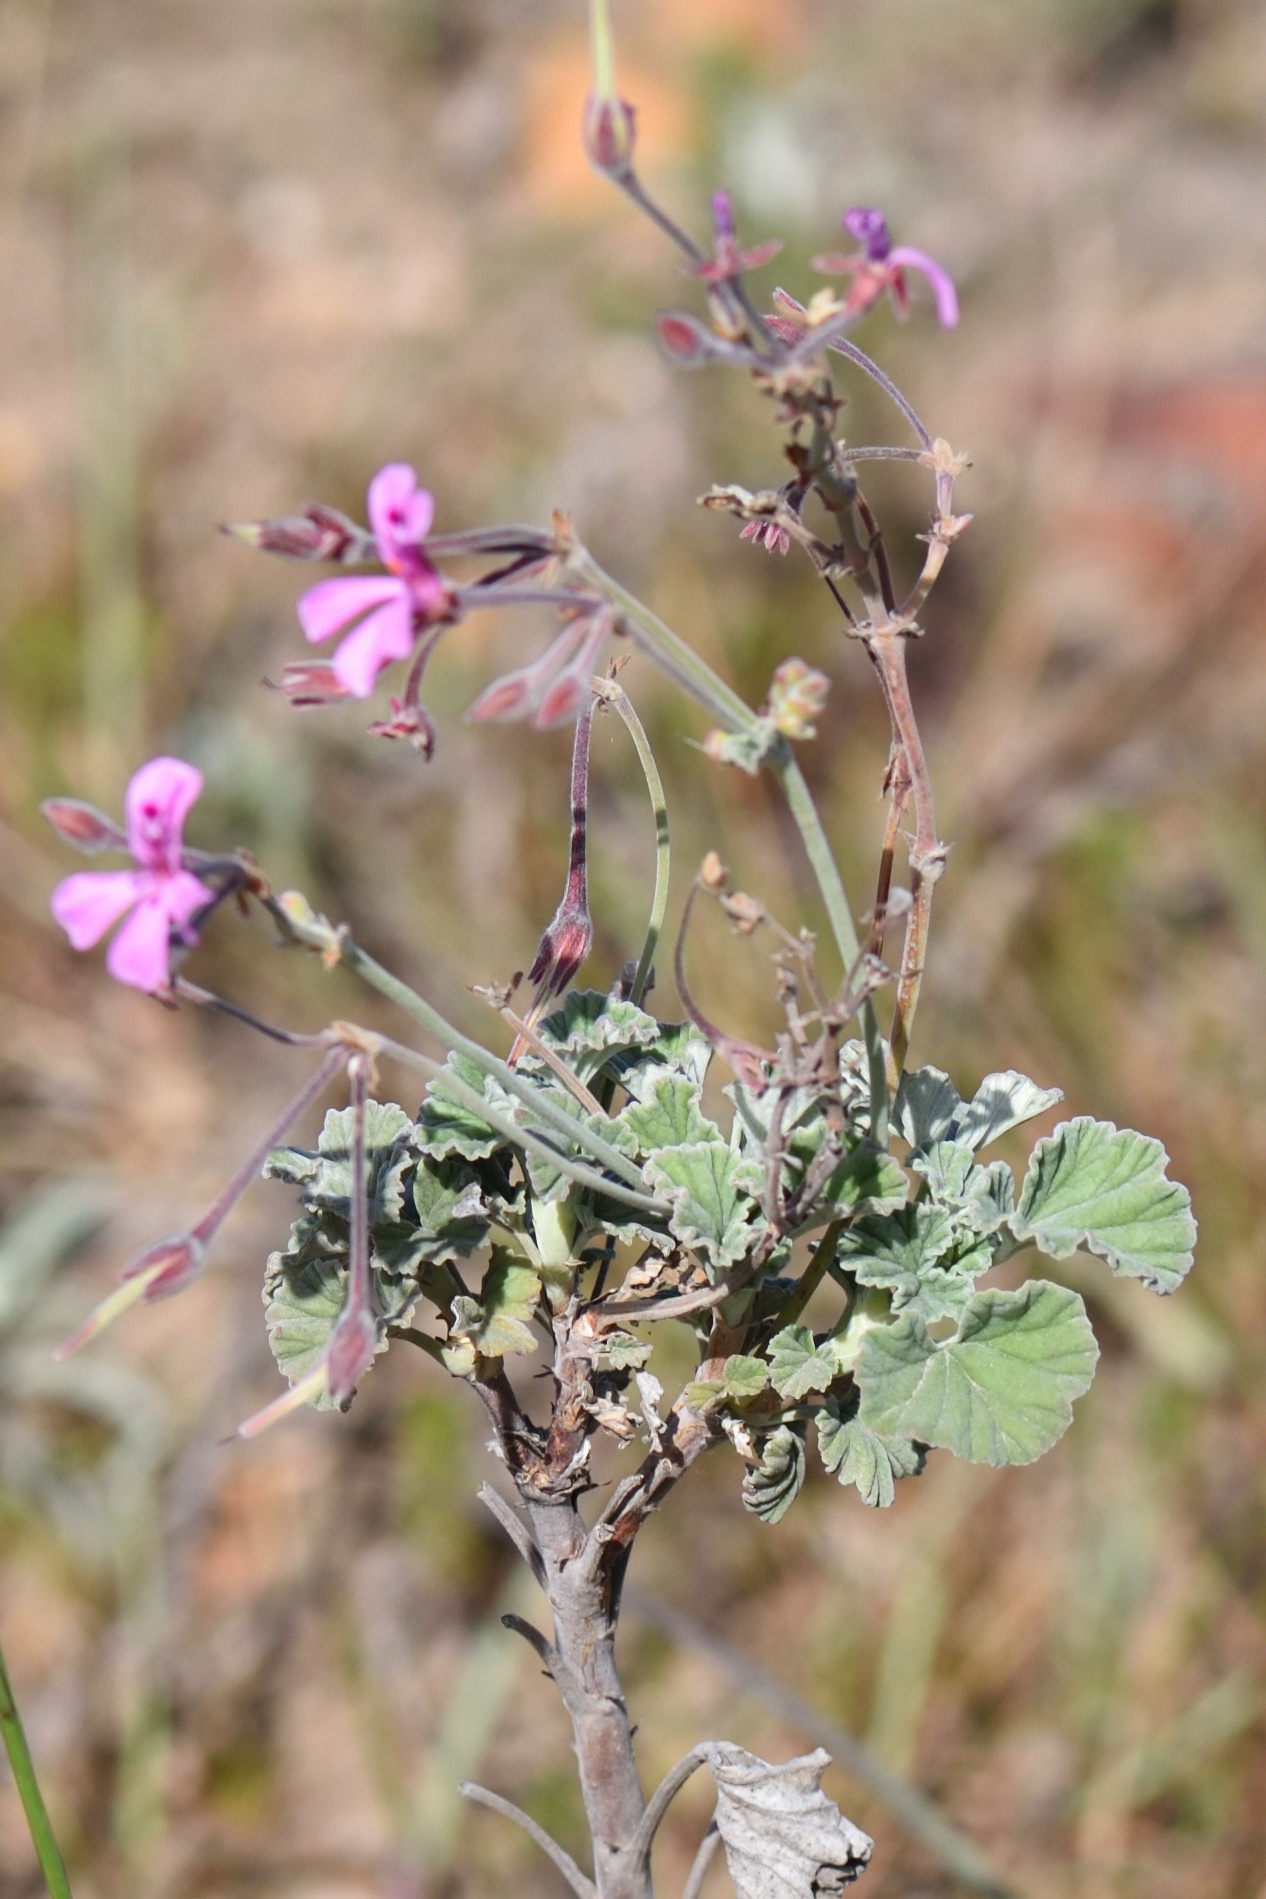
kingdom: Plantae
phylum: Tracheophyta
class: Magnoliopsida
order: Geraniales
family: Geraniaceae
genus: Pelargonium
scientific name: Pelargonium reniforme
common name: Kidney-leaf pelargonium
